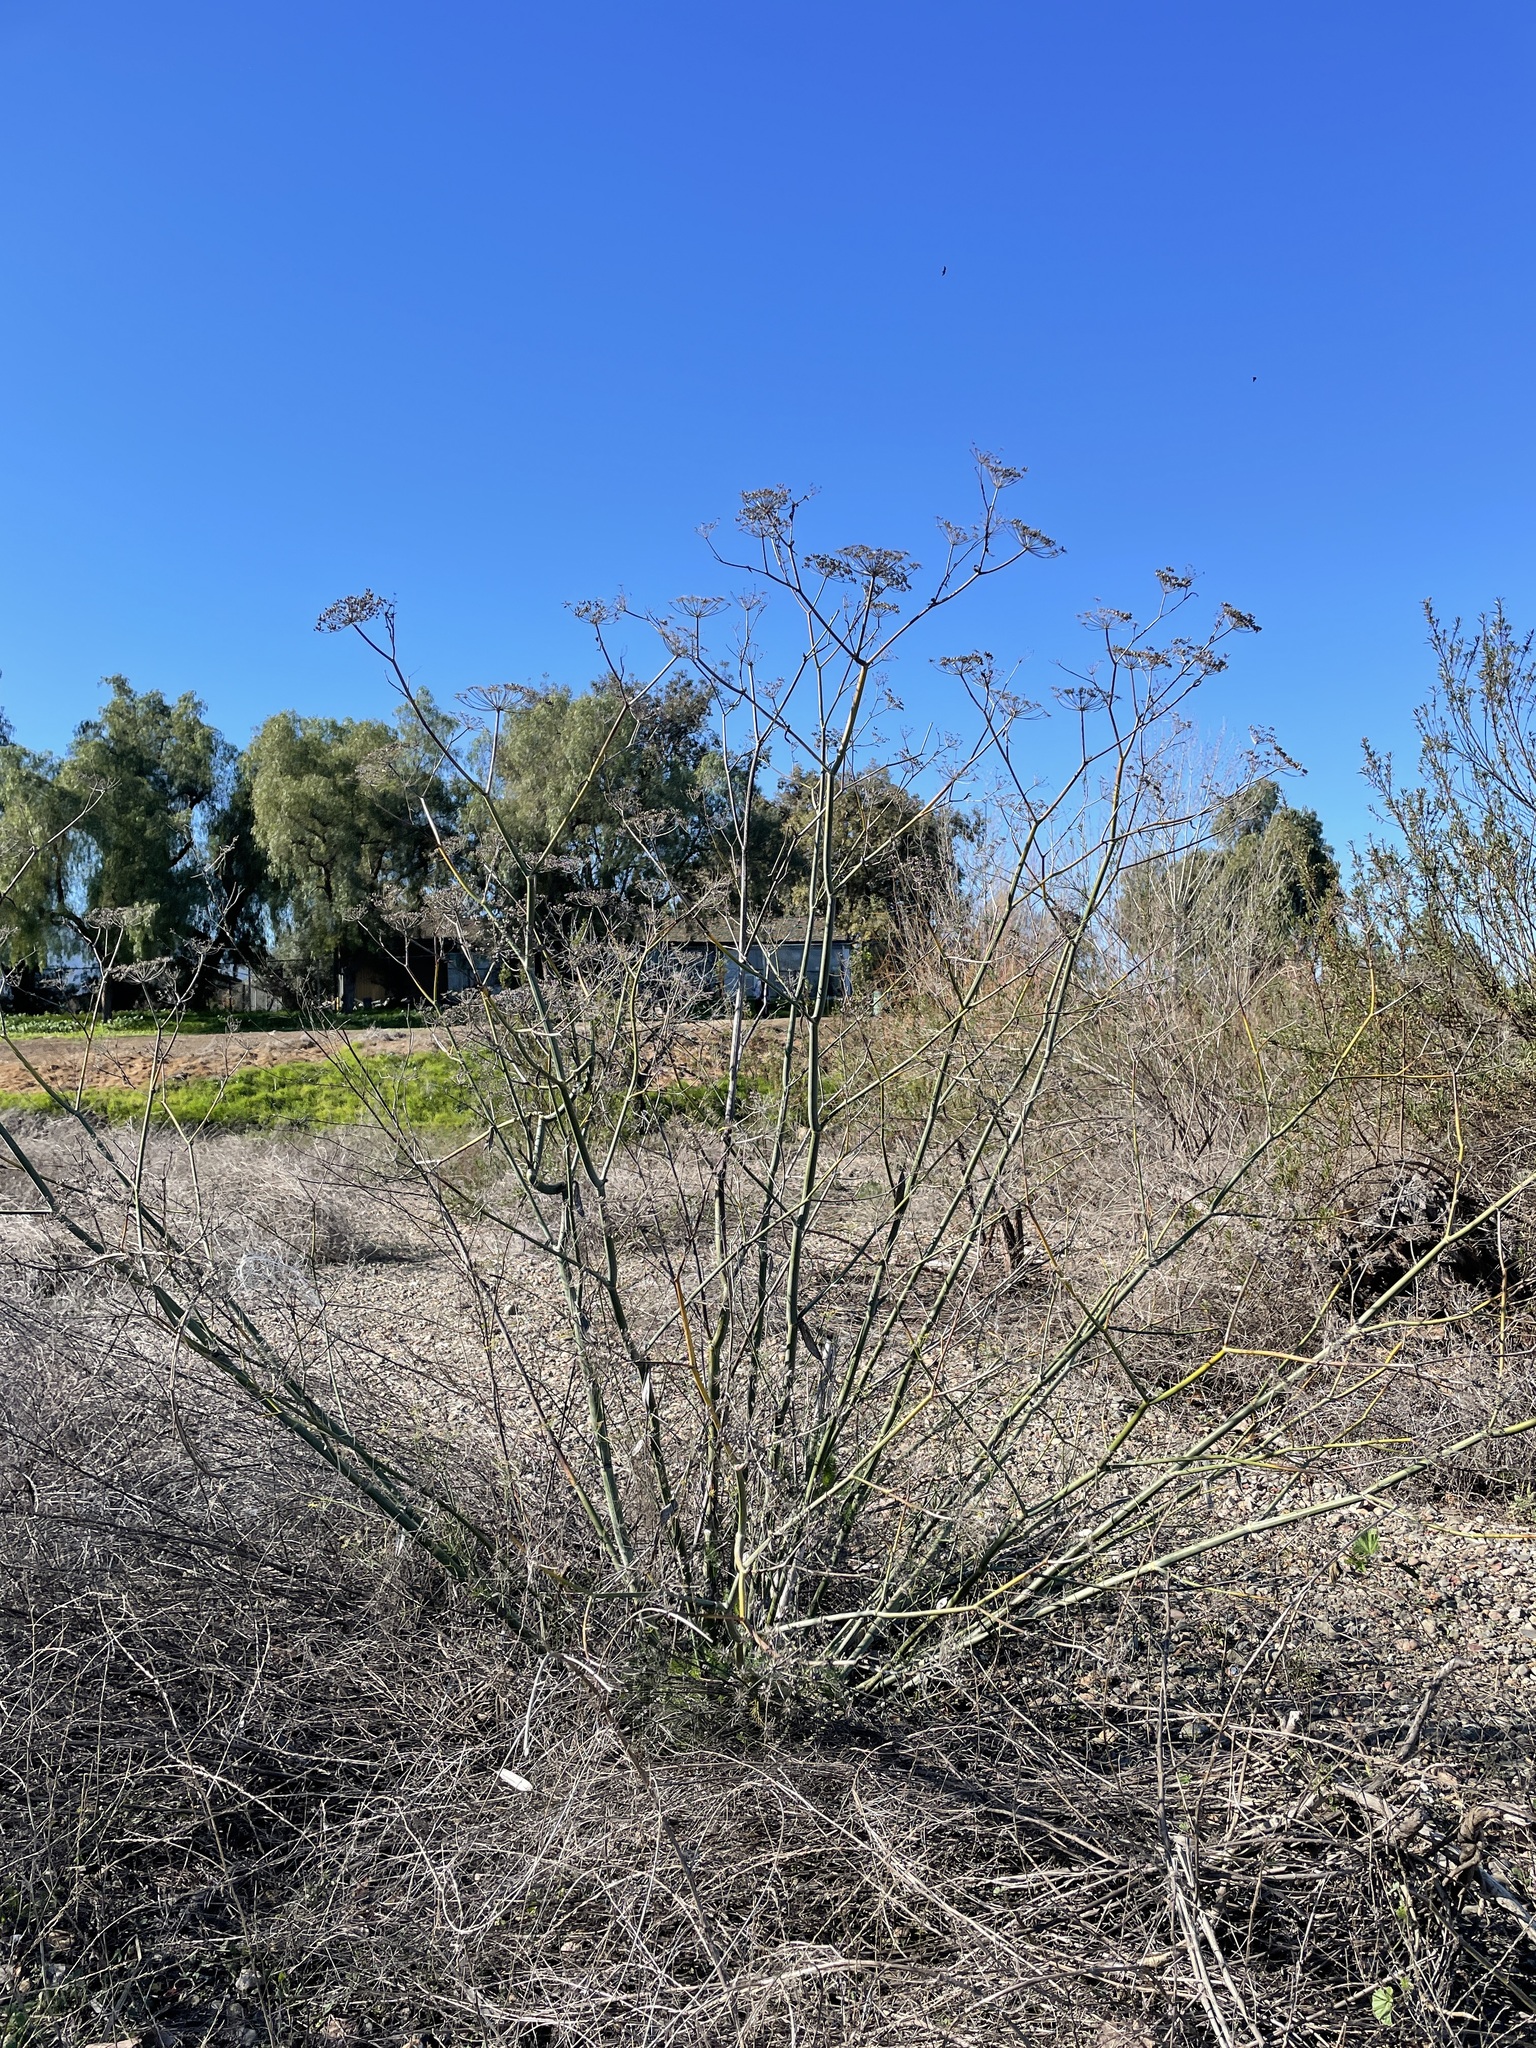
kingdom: Plantae
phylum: Tracheophyta
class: Magnoliopsida
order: Apiales
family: Apiaceae
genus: Foeniculum
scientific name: Foeniculum vulgare
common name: Fennel
